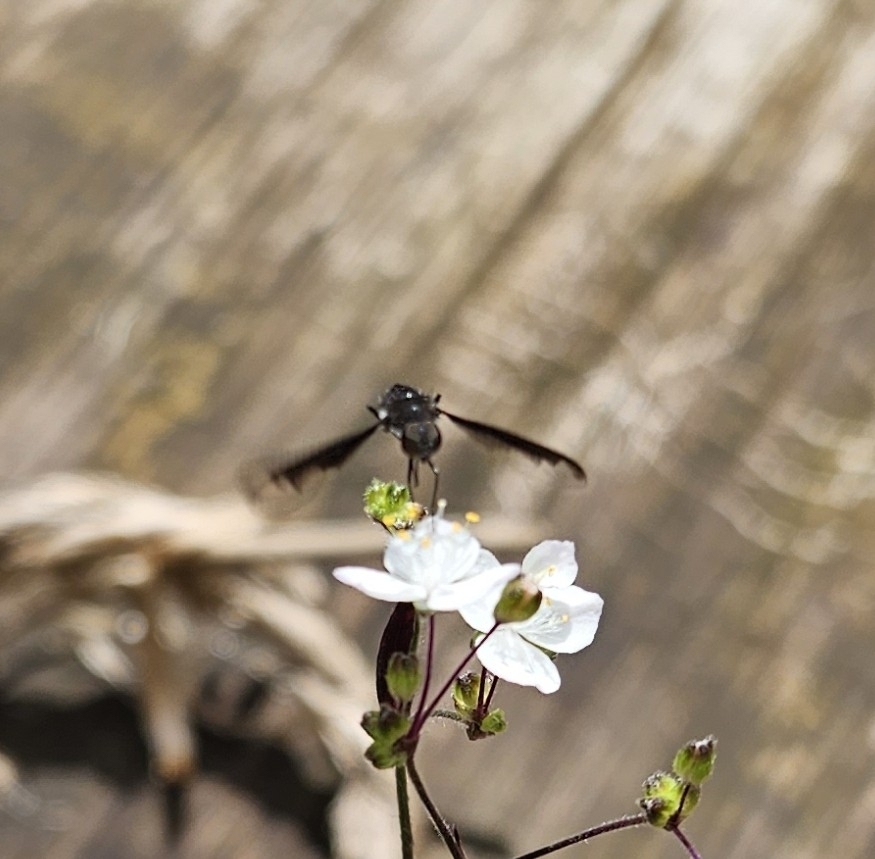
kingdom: Animalia
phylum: Arthropoda
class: Insecta
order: Diptera
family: Bombyliidae
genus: Anthrax
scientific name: Anthrax argyropygus
